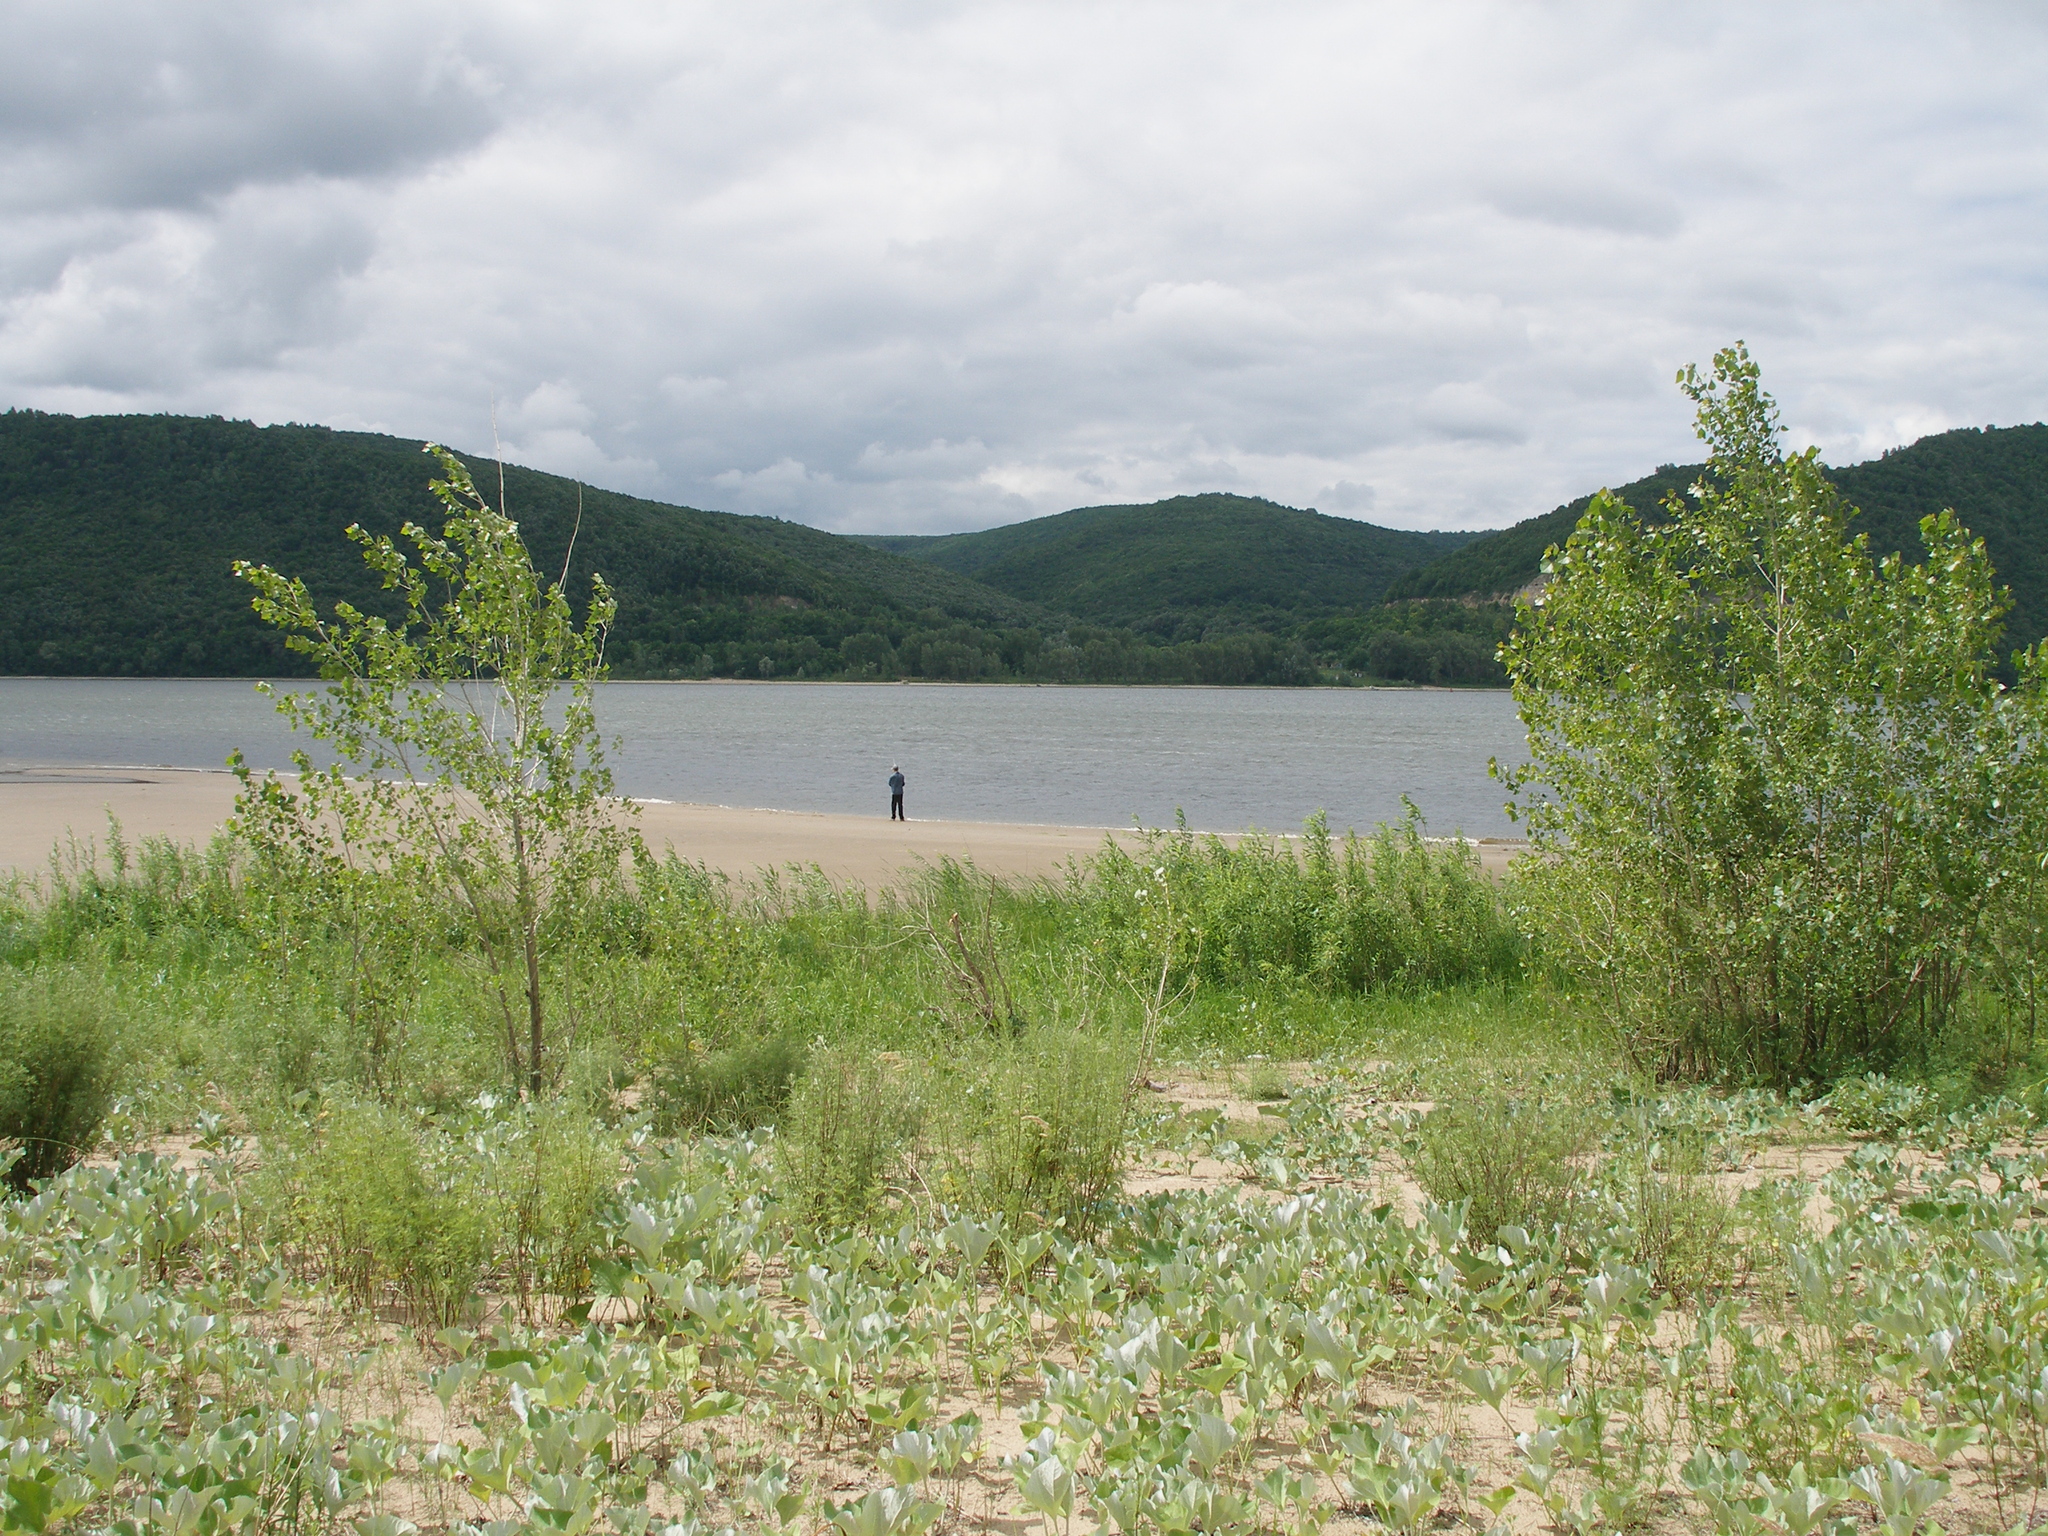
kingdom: Plantae
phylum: Tracheophyta
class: Magnoliopsida
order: Asterales
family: Asteraceae
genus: Petasites
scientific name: Petasites spurius
